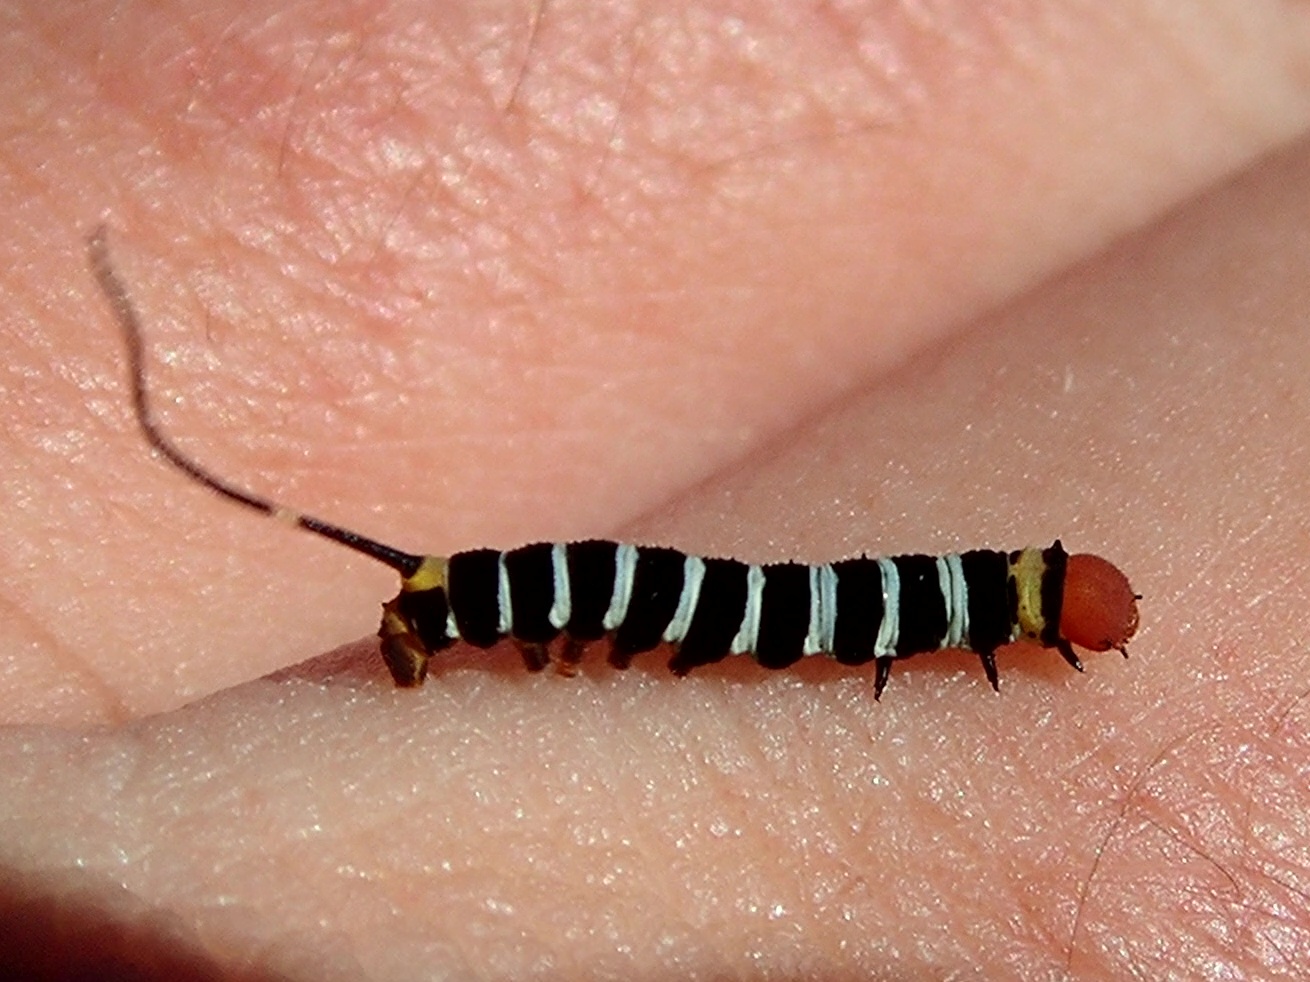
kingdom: Animalia
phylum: Arthropoda
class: Insecta
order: Lepidoptera
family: Sphingidae
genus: Isognathus
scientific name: Isognathus swainsoni
